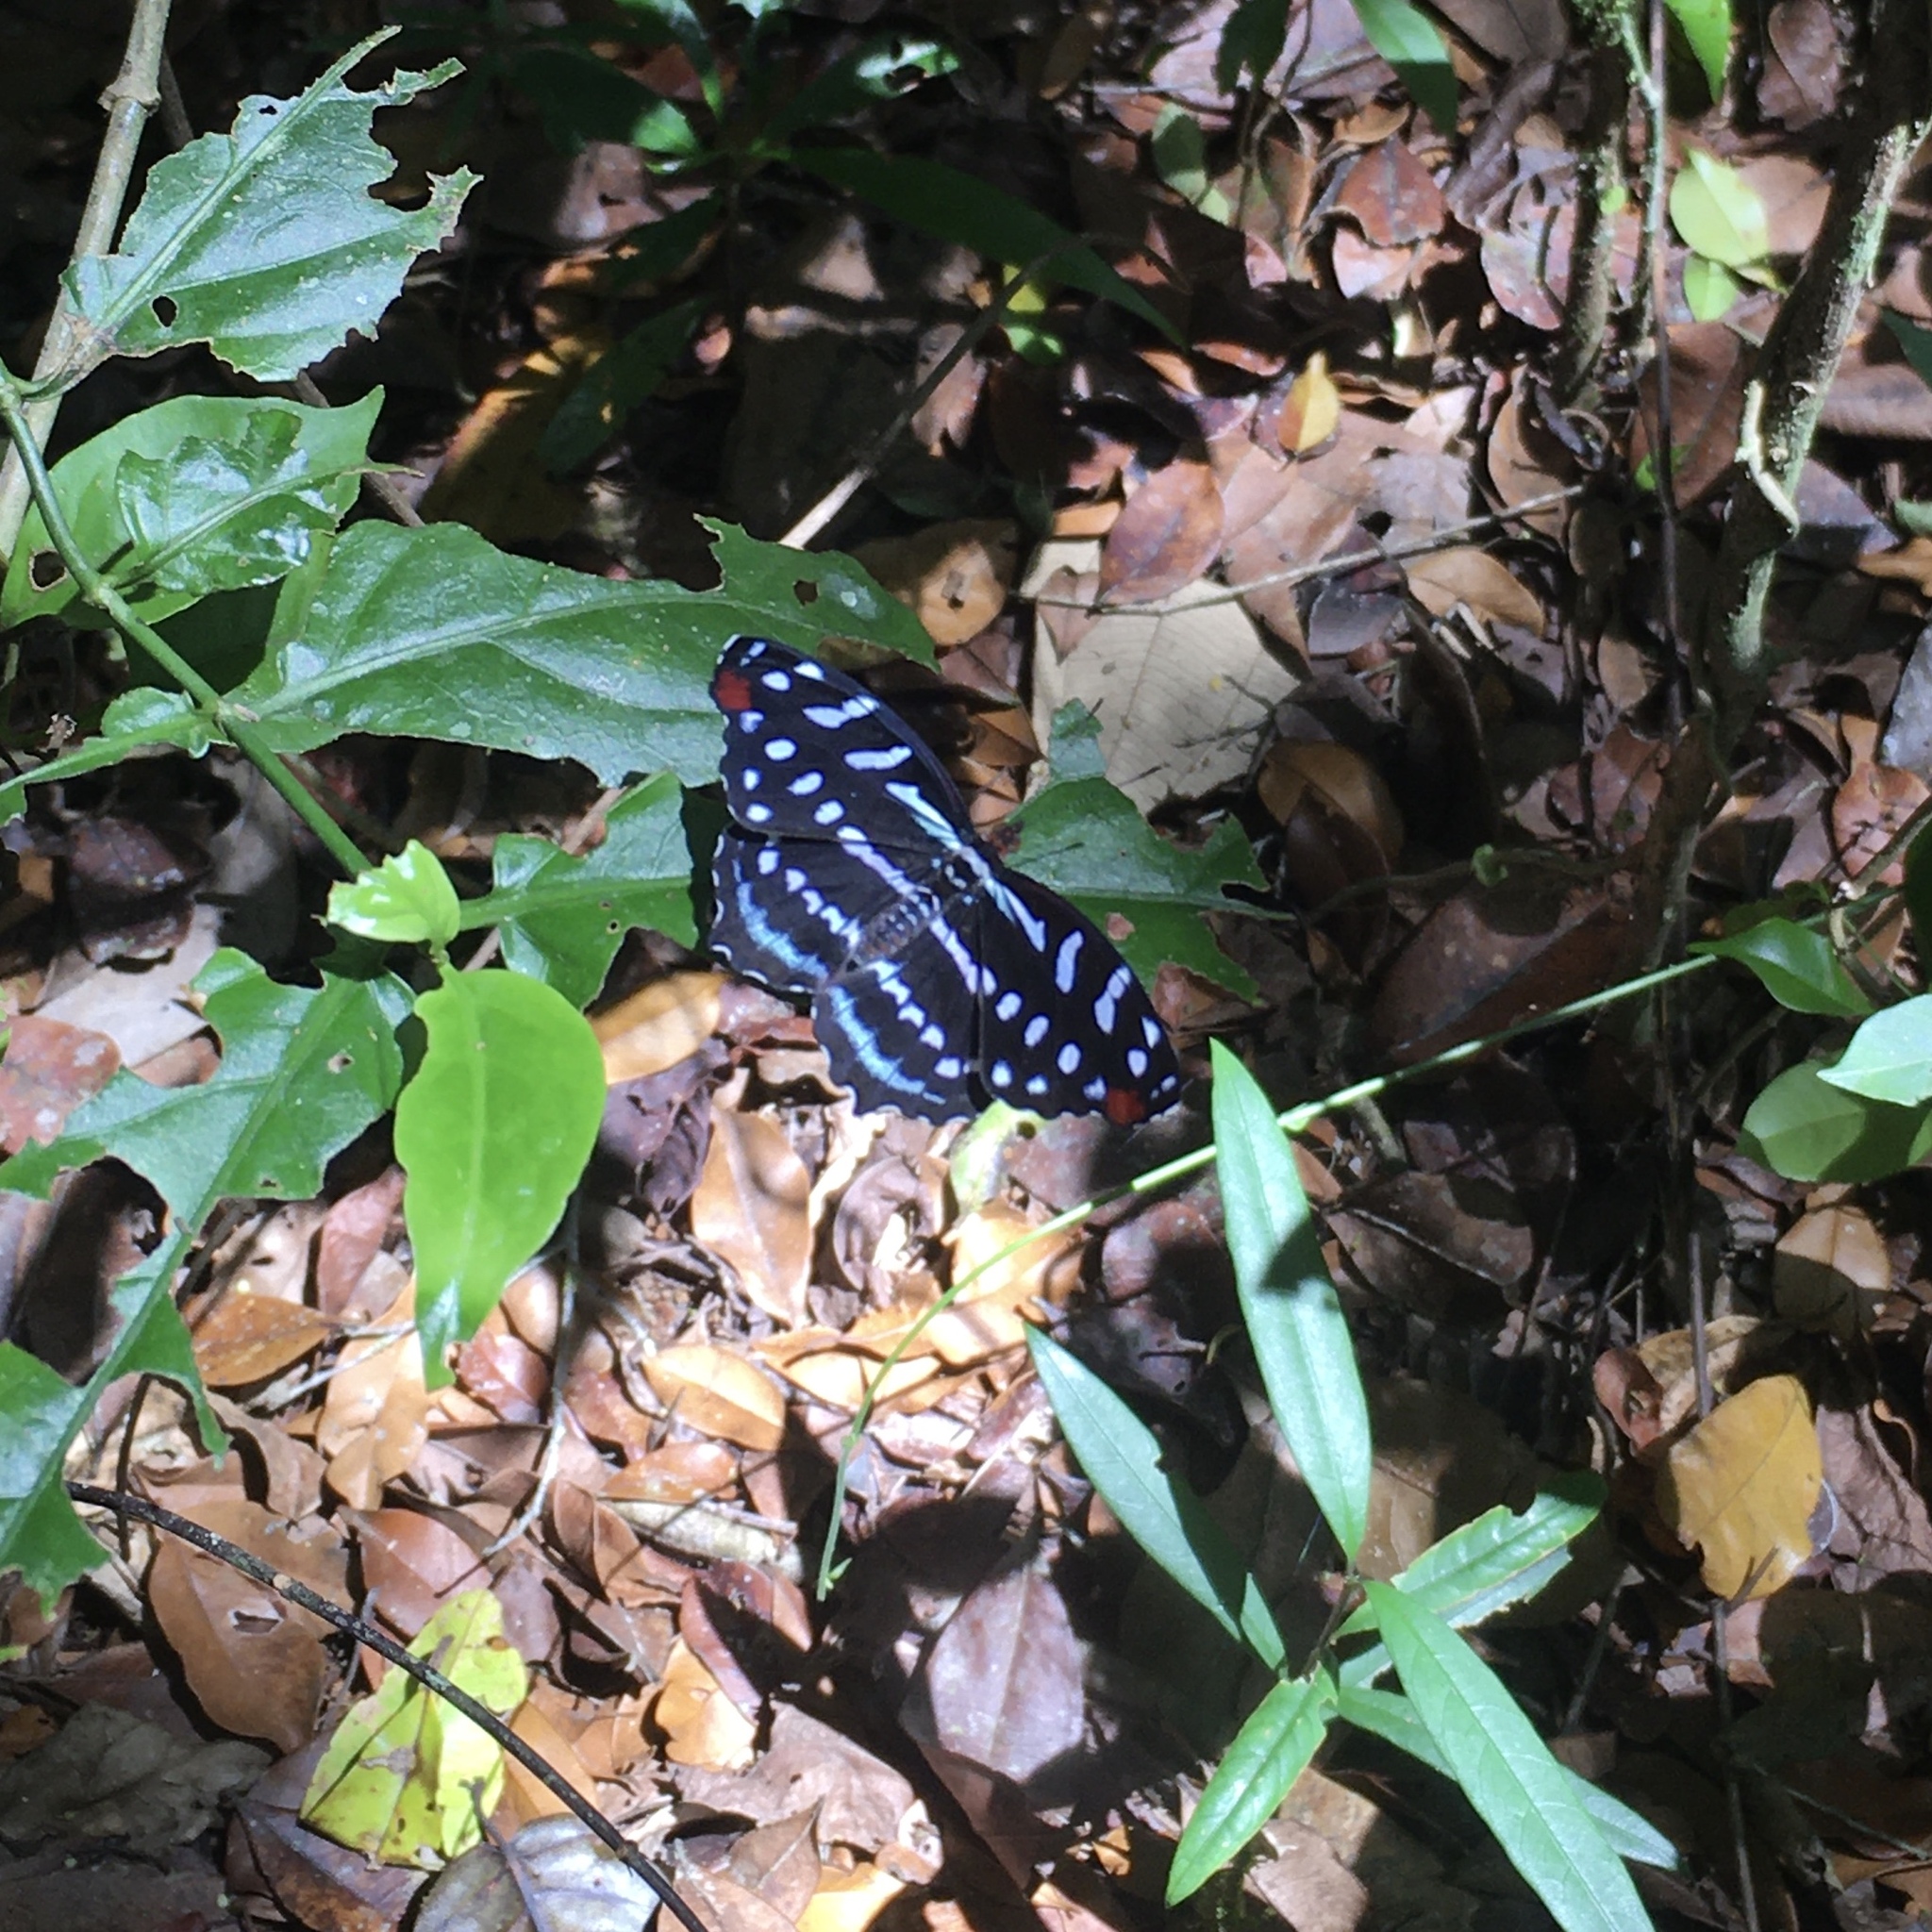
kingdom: Animalia
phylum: Arthropoda
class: Insecta
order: Lepidoptera
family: Nymphalidae
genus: Myscelia
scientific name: Myscelia orsis
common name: Orsis bluewing
